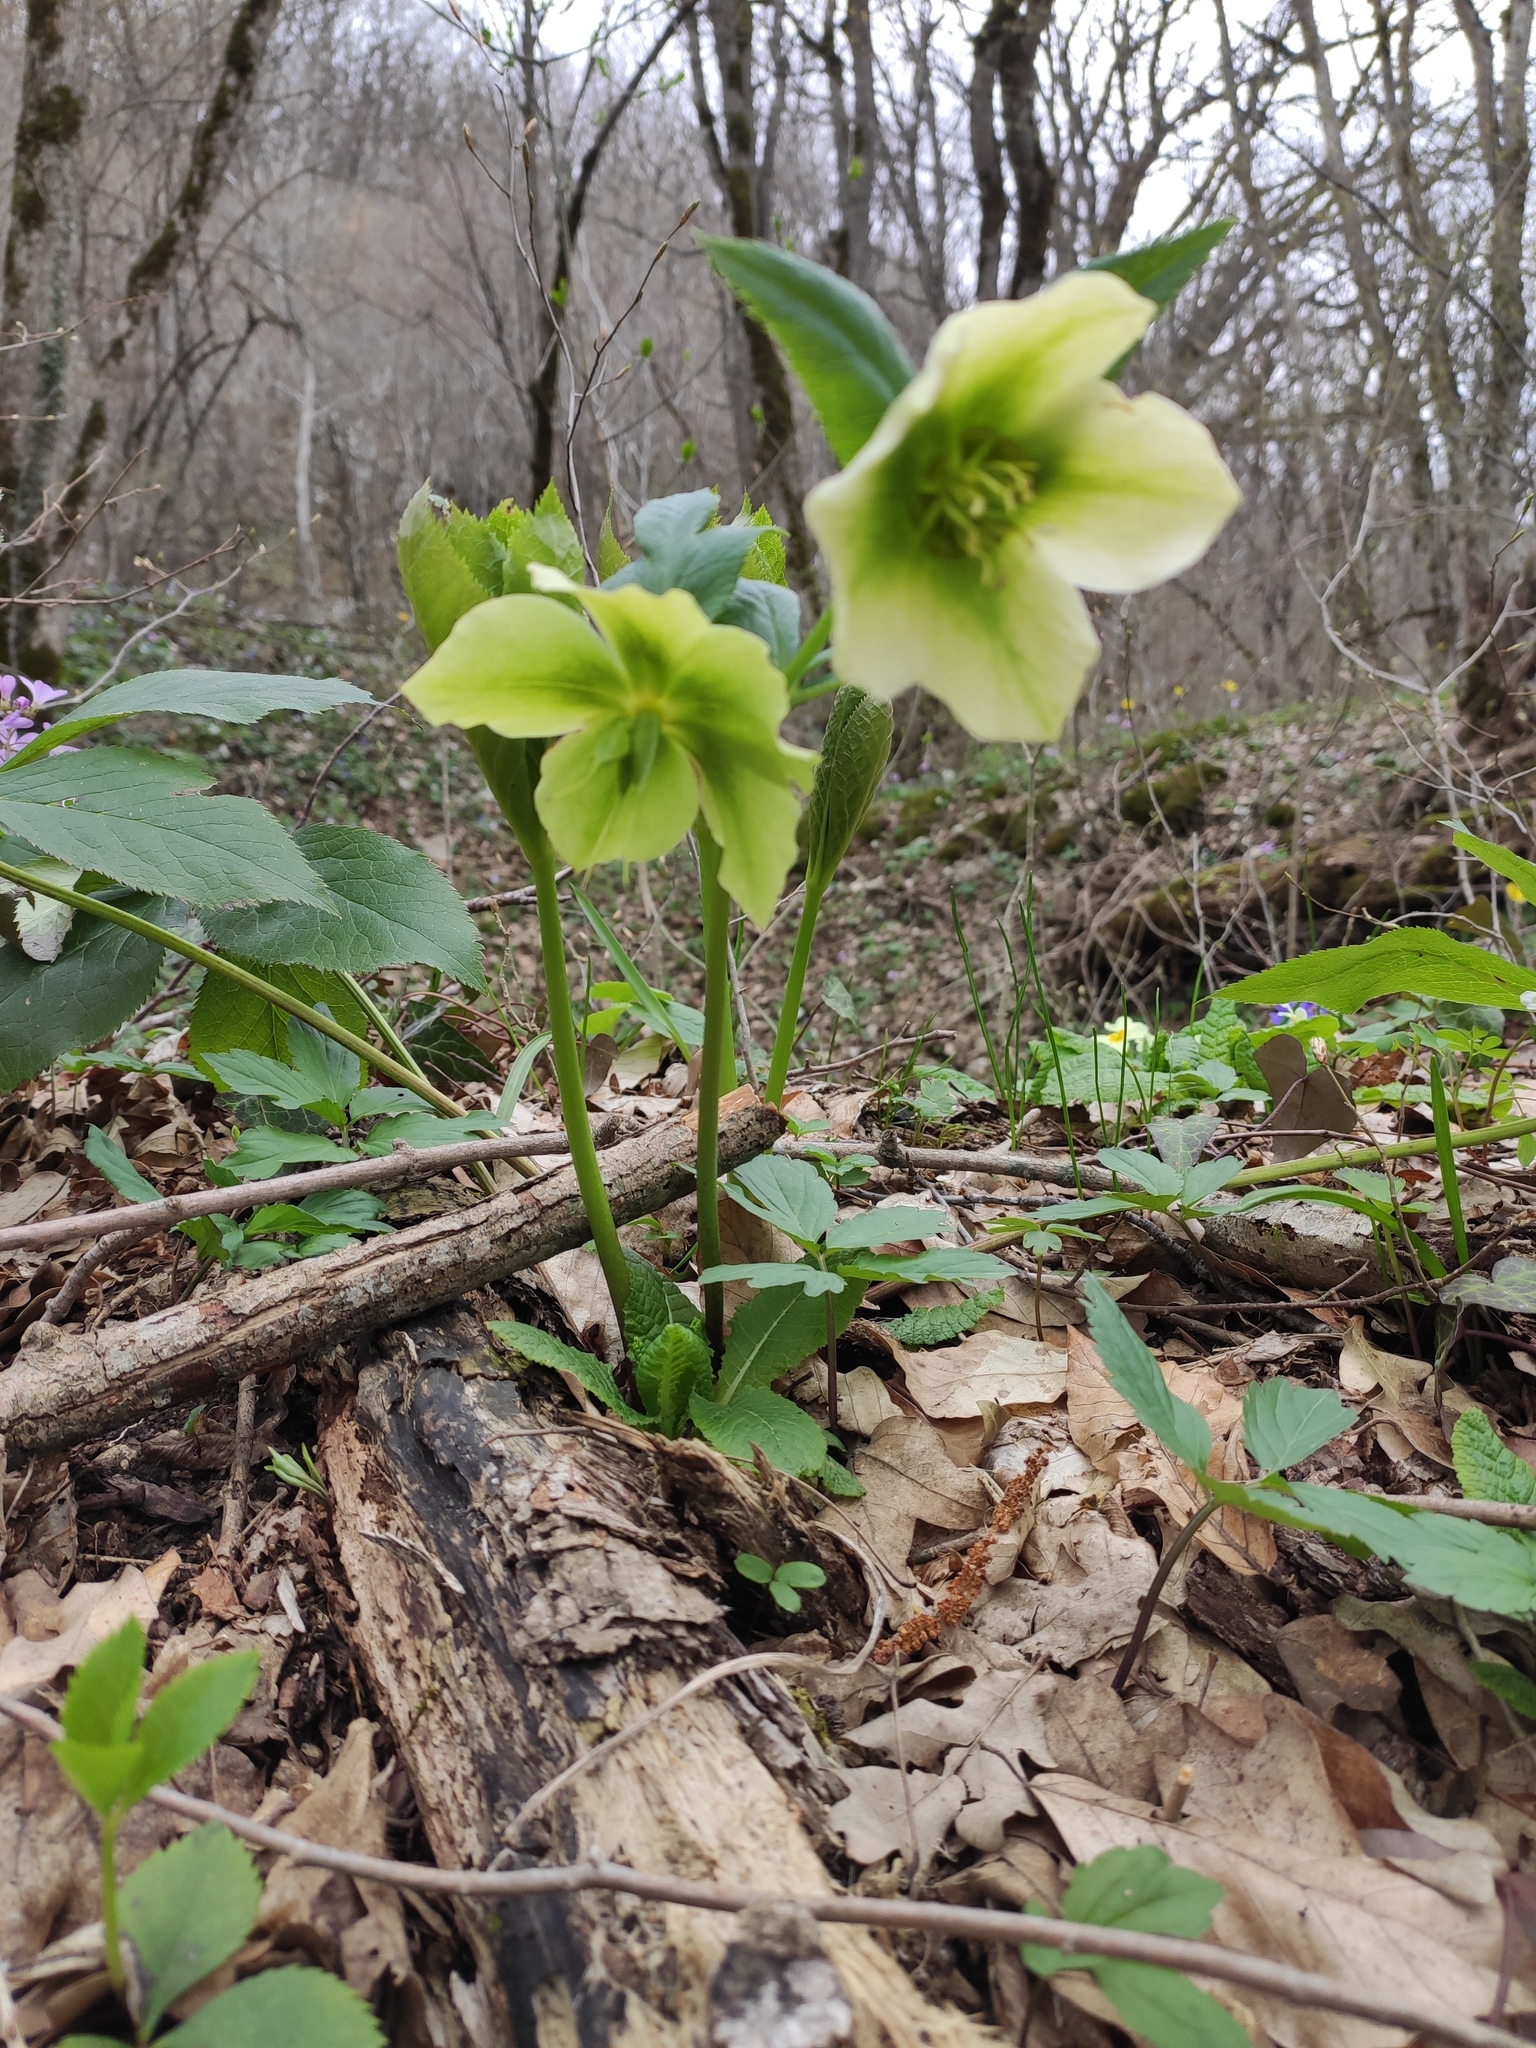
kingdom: Plantae
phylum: Tracheophyta
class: Magnoliopsida
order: Ranunculales
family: Ranunculaceae
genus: Helleborus
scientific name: Helleborus orientalis
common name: Lenten-rose
